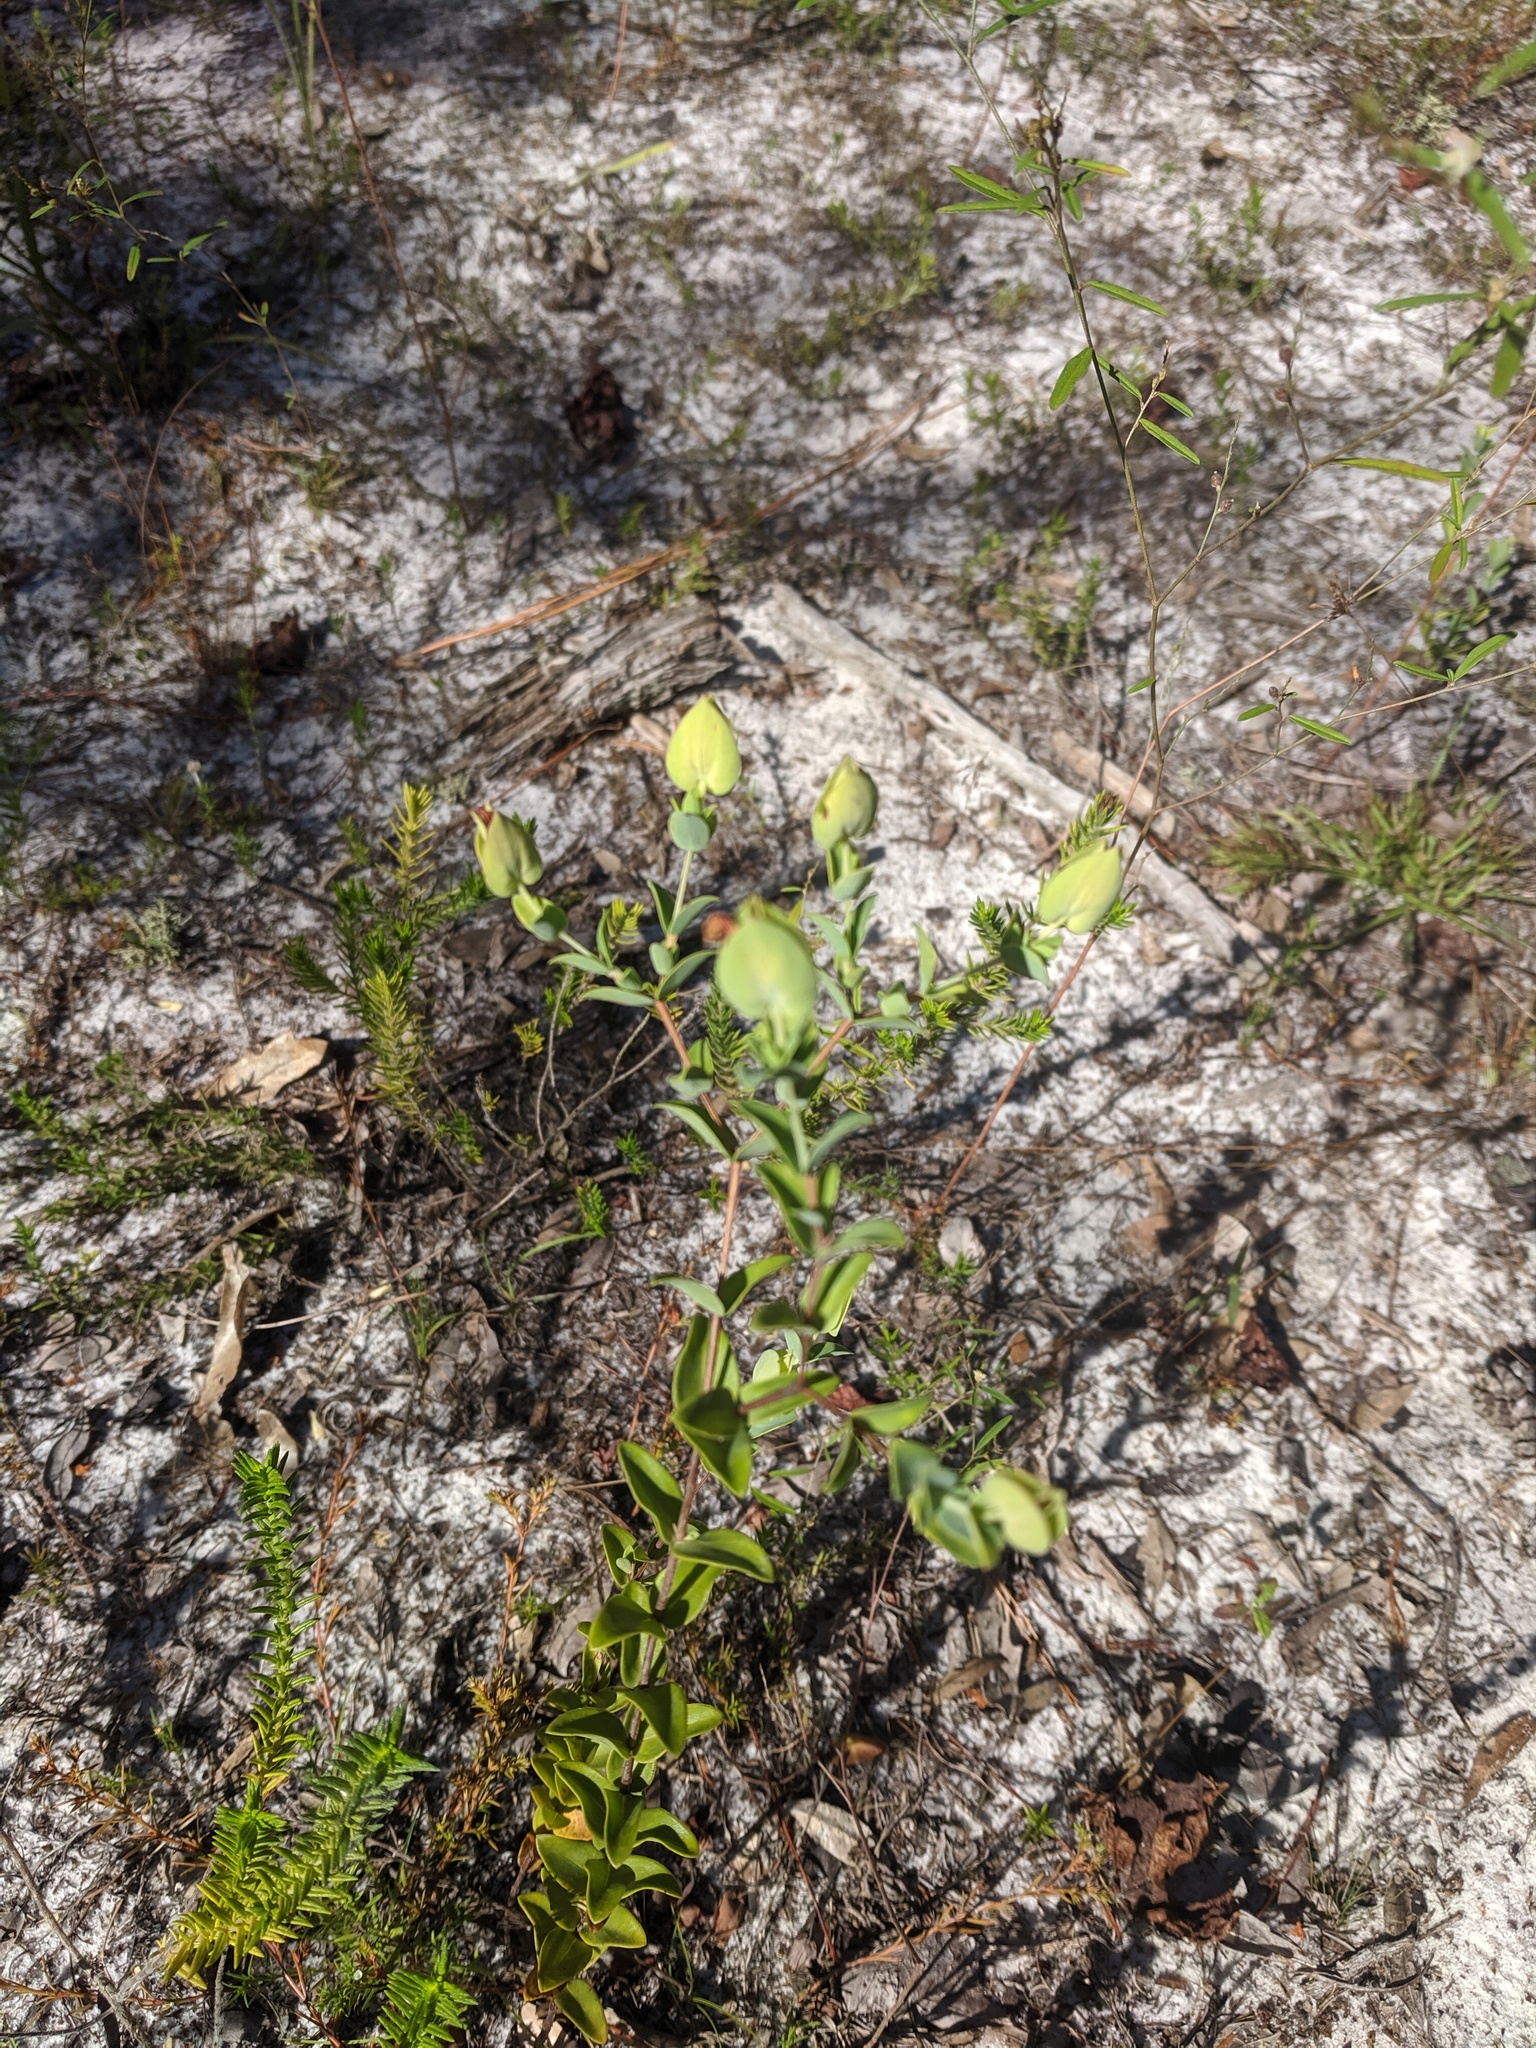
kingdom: Plantae
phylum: Tracheophyta
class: Magnoliopsida
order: Malpighiales
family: Hypericaceae
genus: Hypericum
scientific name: Hypericum tetrapetalum
